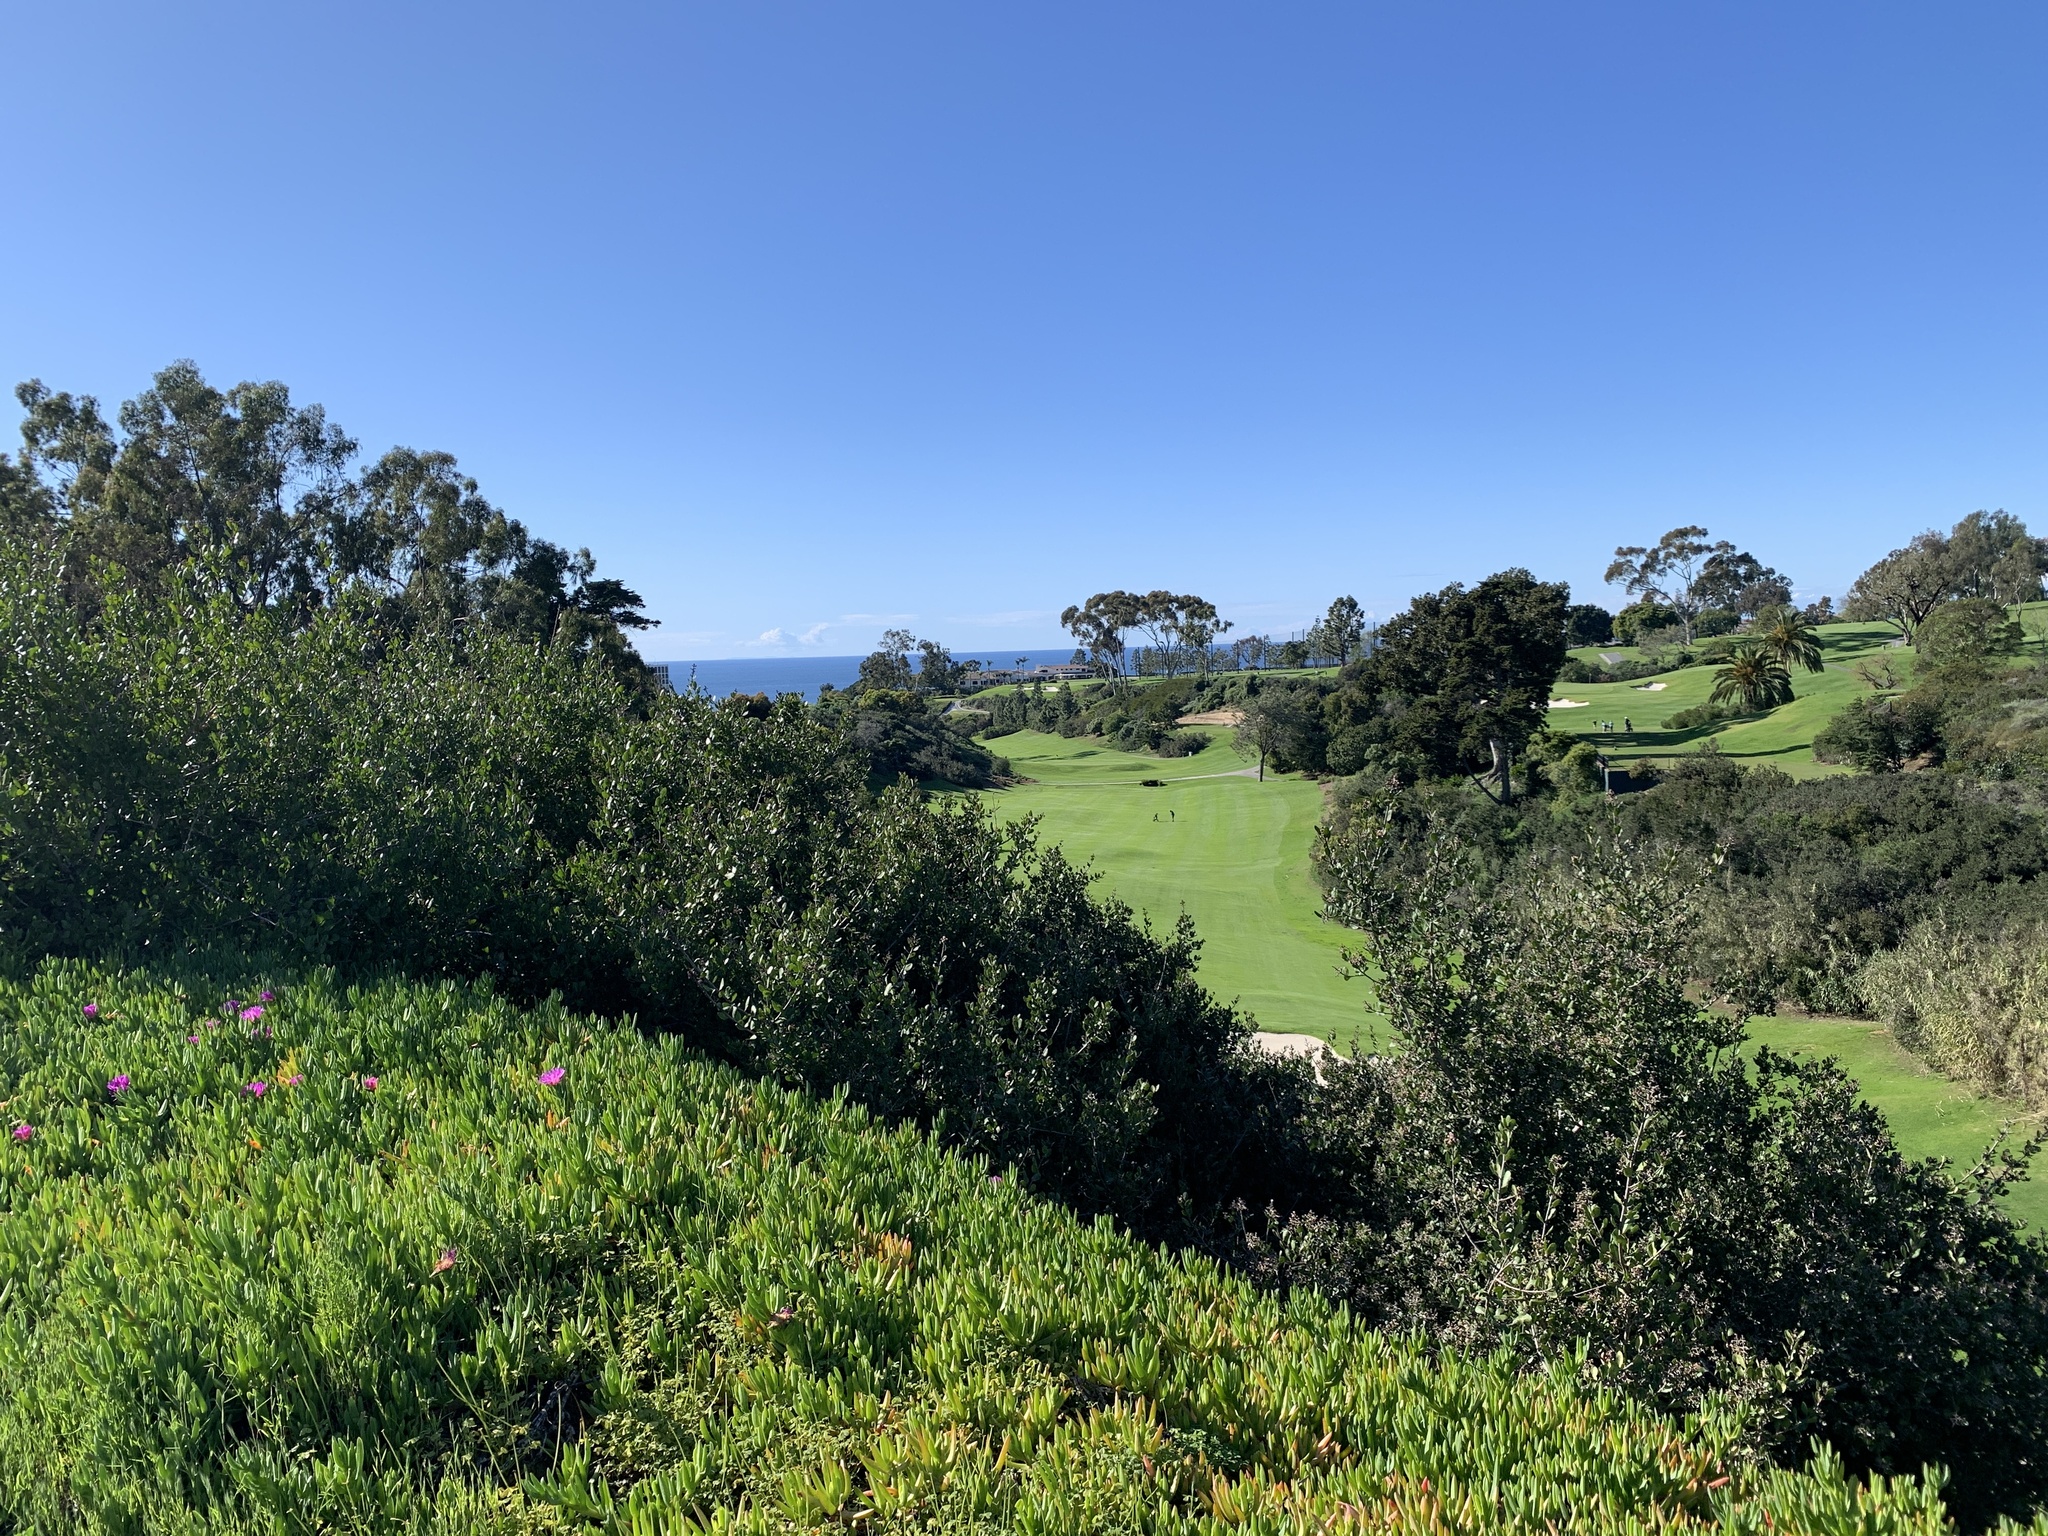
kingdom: Plantae
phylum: Tracheophyta
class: Magnoliopsida
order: Sapindales
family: Anacardiaceae
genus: Rhus
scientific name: Rhus integrifolia
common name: Lemonade sumac
